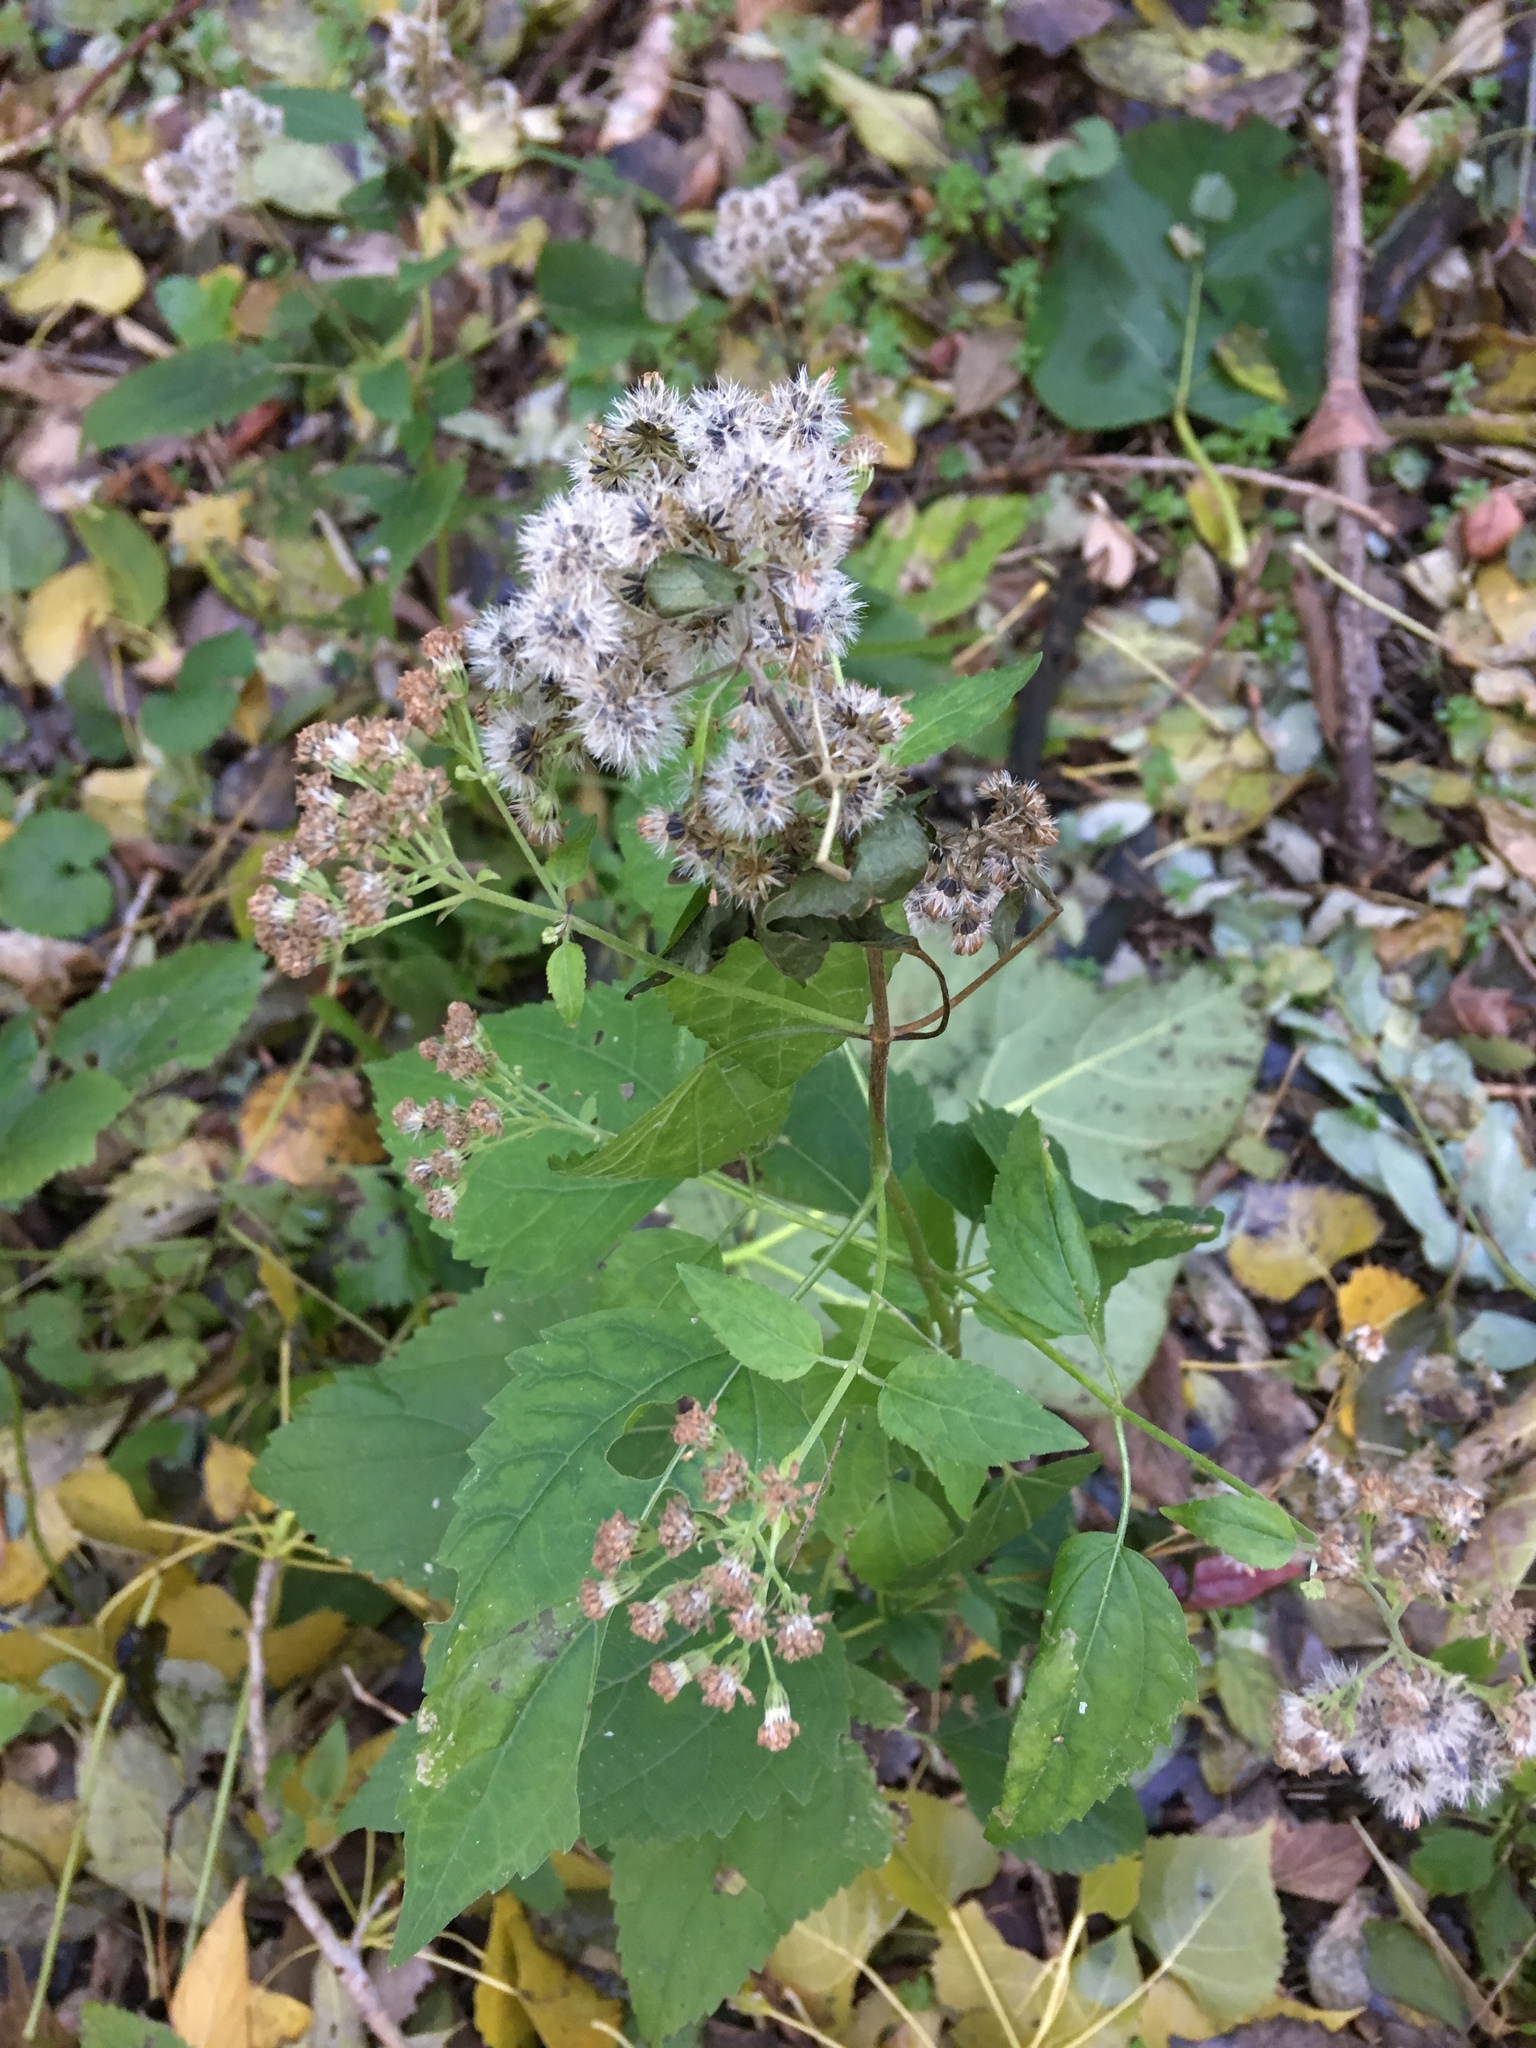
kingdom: Plantae
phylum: Tracheophyta
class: Magnoliopsida
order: Asterales
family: Asteraceae
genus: Ageratina
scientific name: Ageratina altissima
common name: White snakeroot
